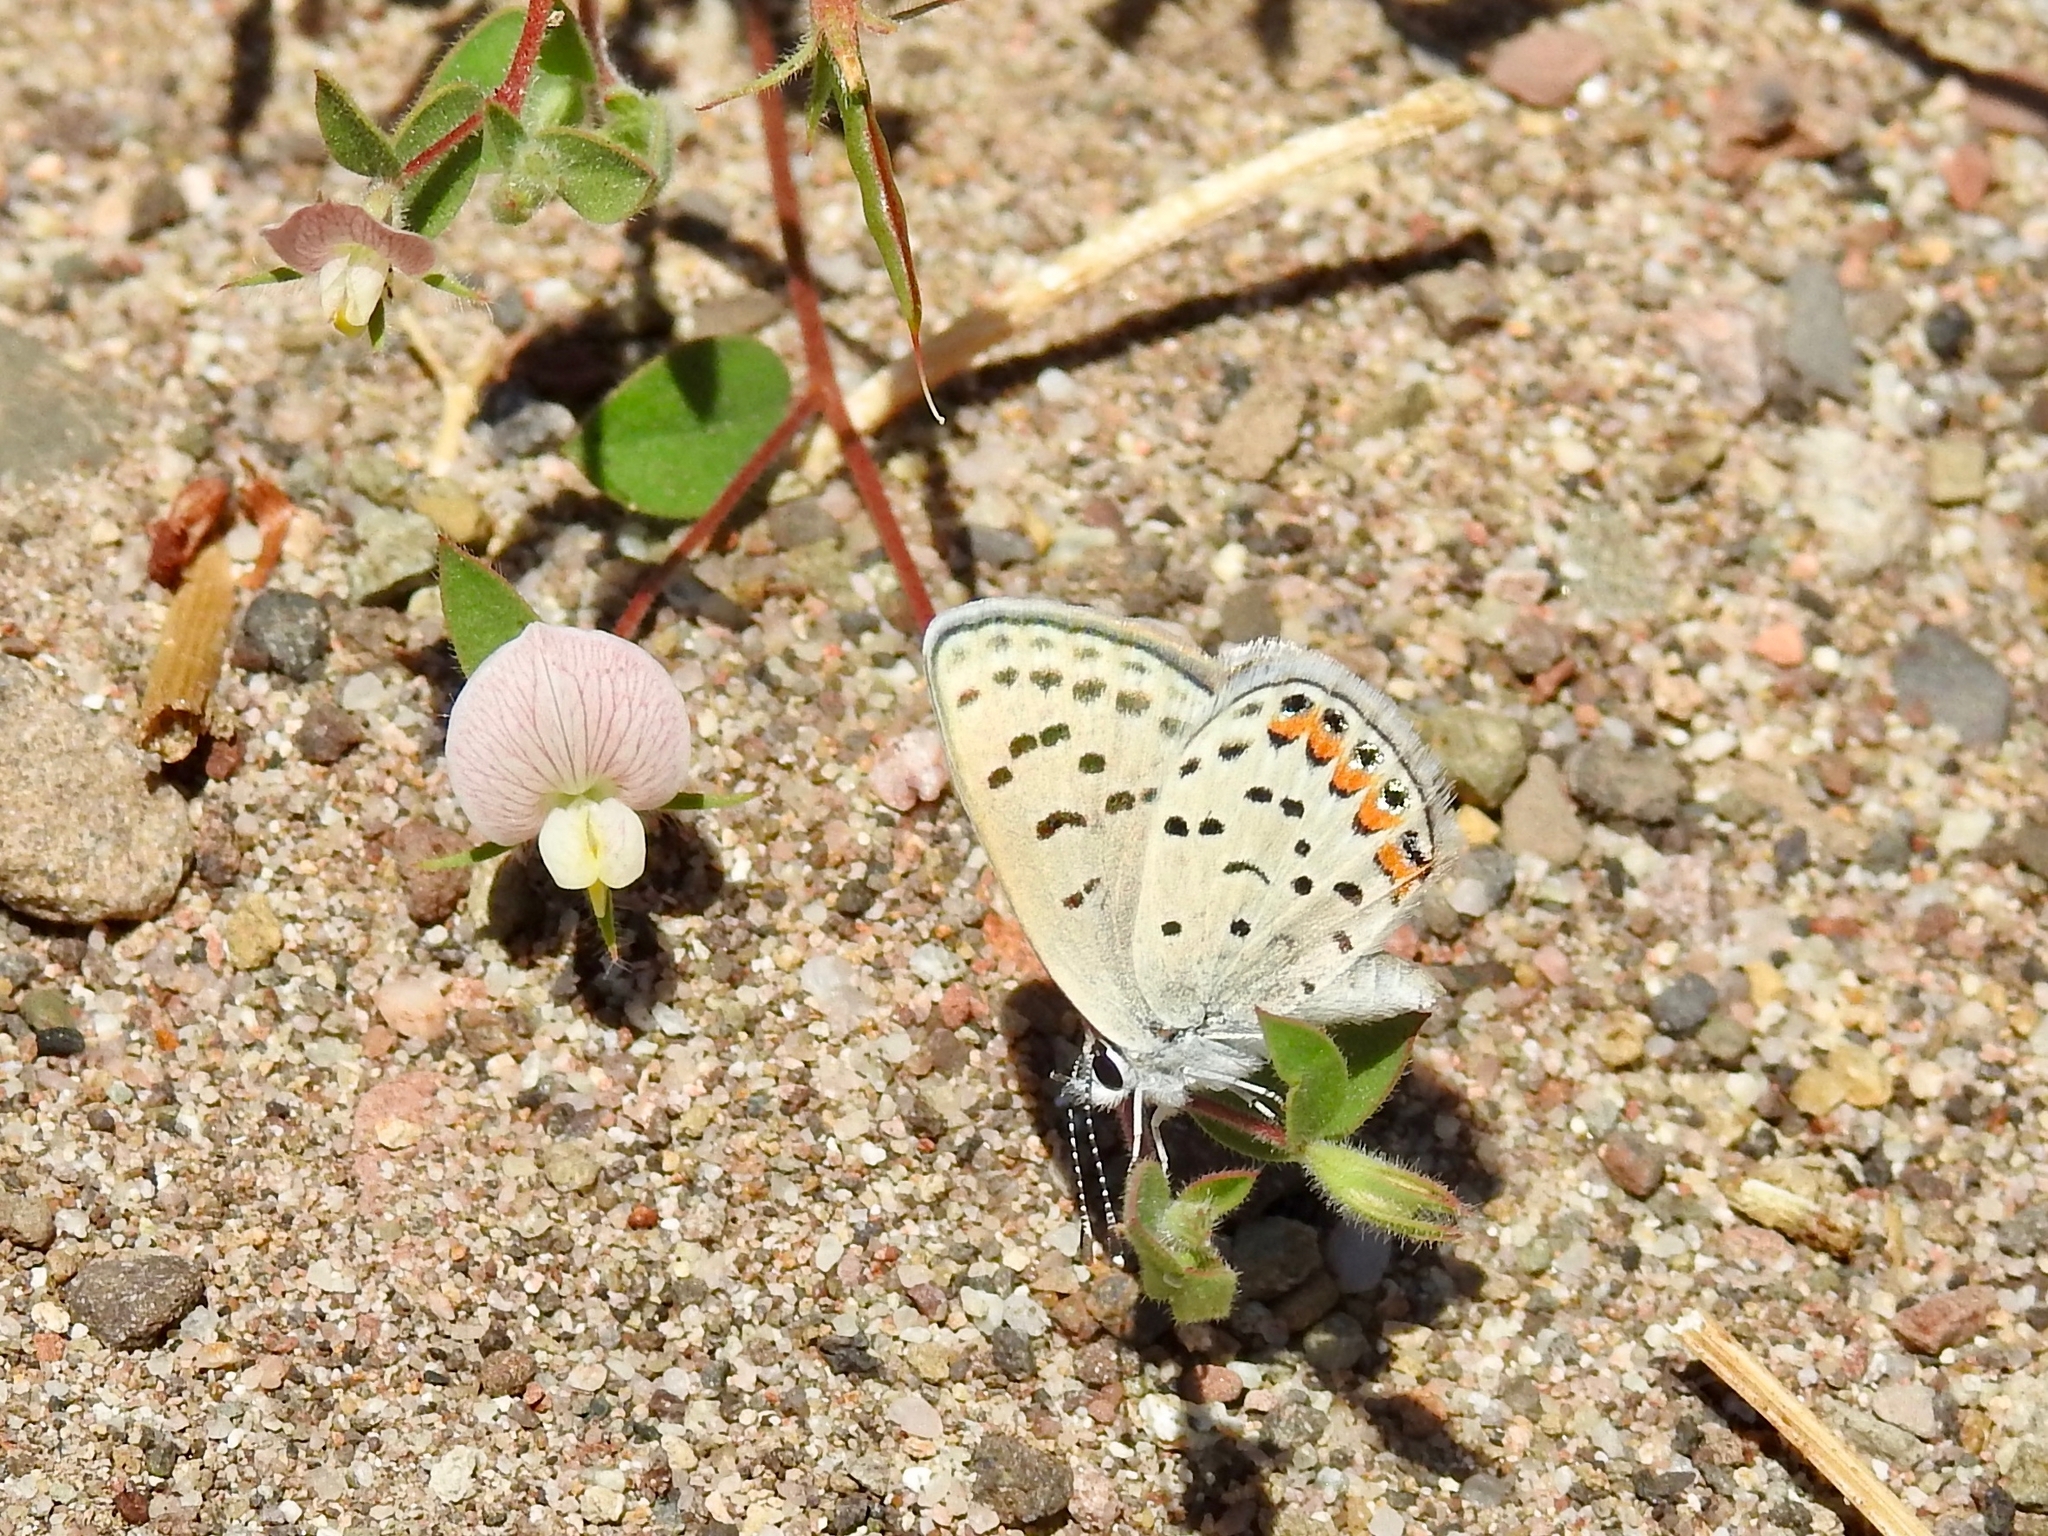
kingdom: Animalia
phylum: Arthropoda
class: Insecta
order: Lepidoptera
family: Lycaenidae
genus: Icaricia
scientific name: Icaricia acmon
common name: Acmon blue
